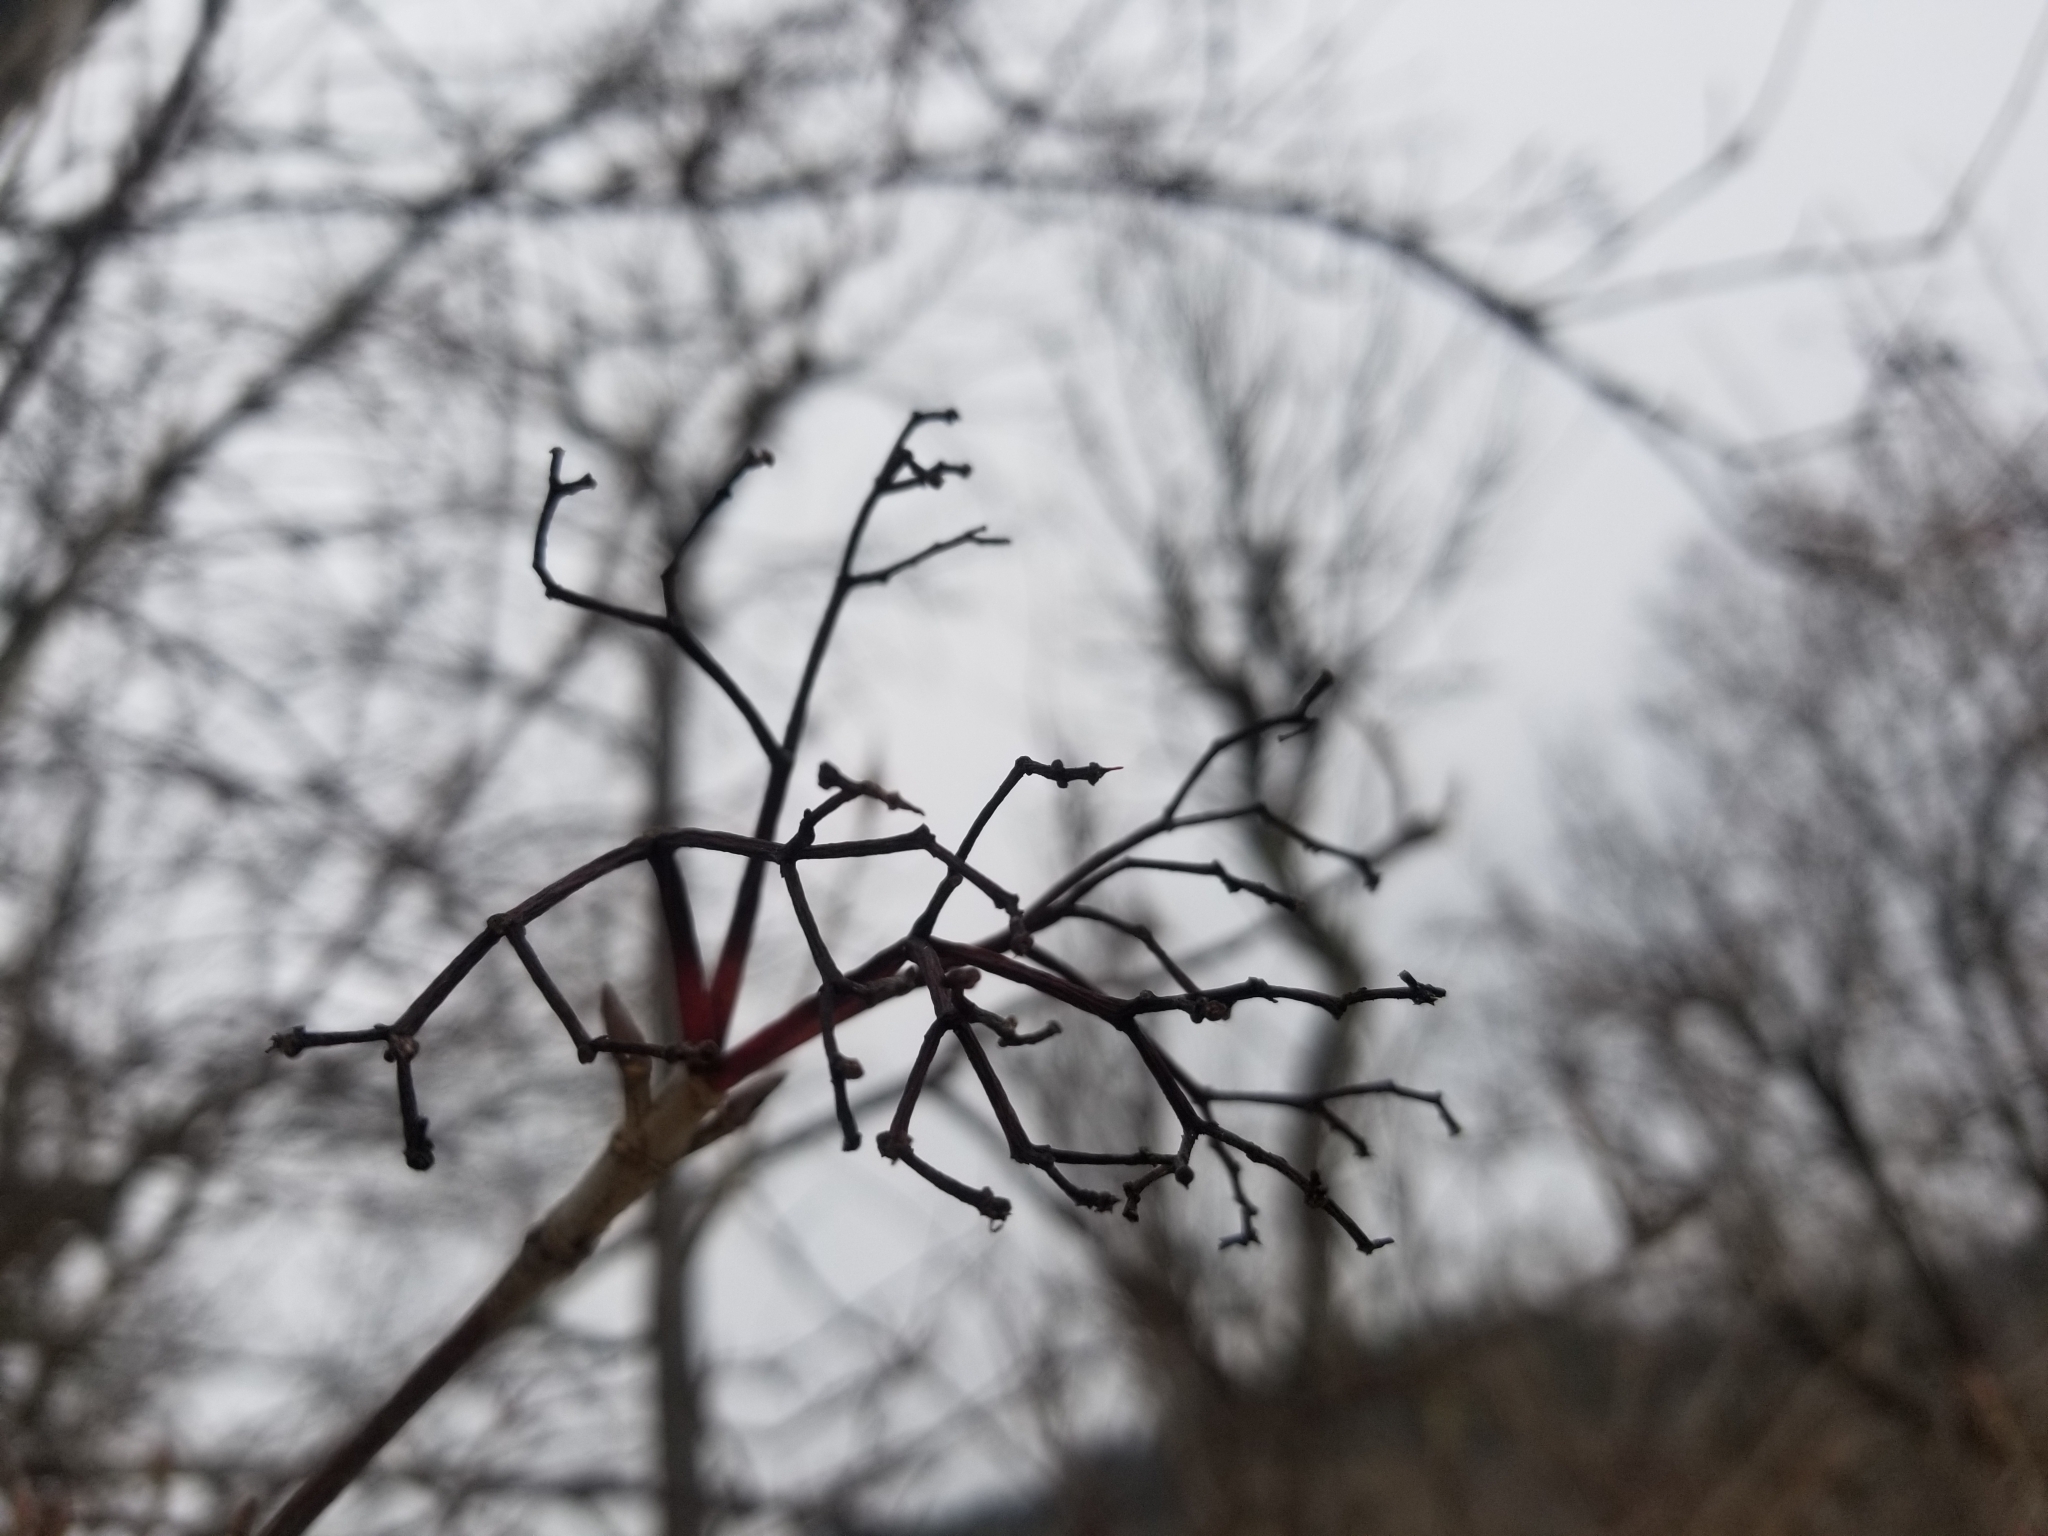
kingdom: Plantae
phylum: Tracheophyta
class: Magnoliopsida
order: Dipsacales
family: Viburnaceae
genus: Viburnum
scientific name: Viburnum lentago
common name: Black haw
